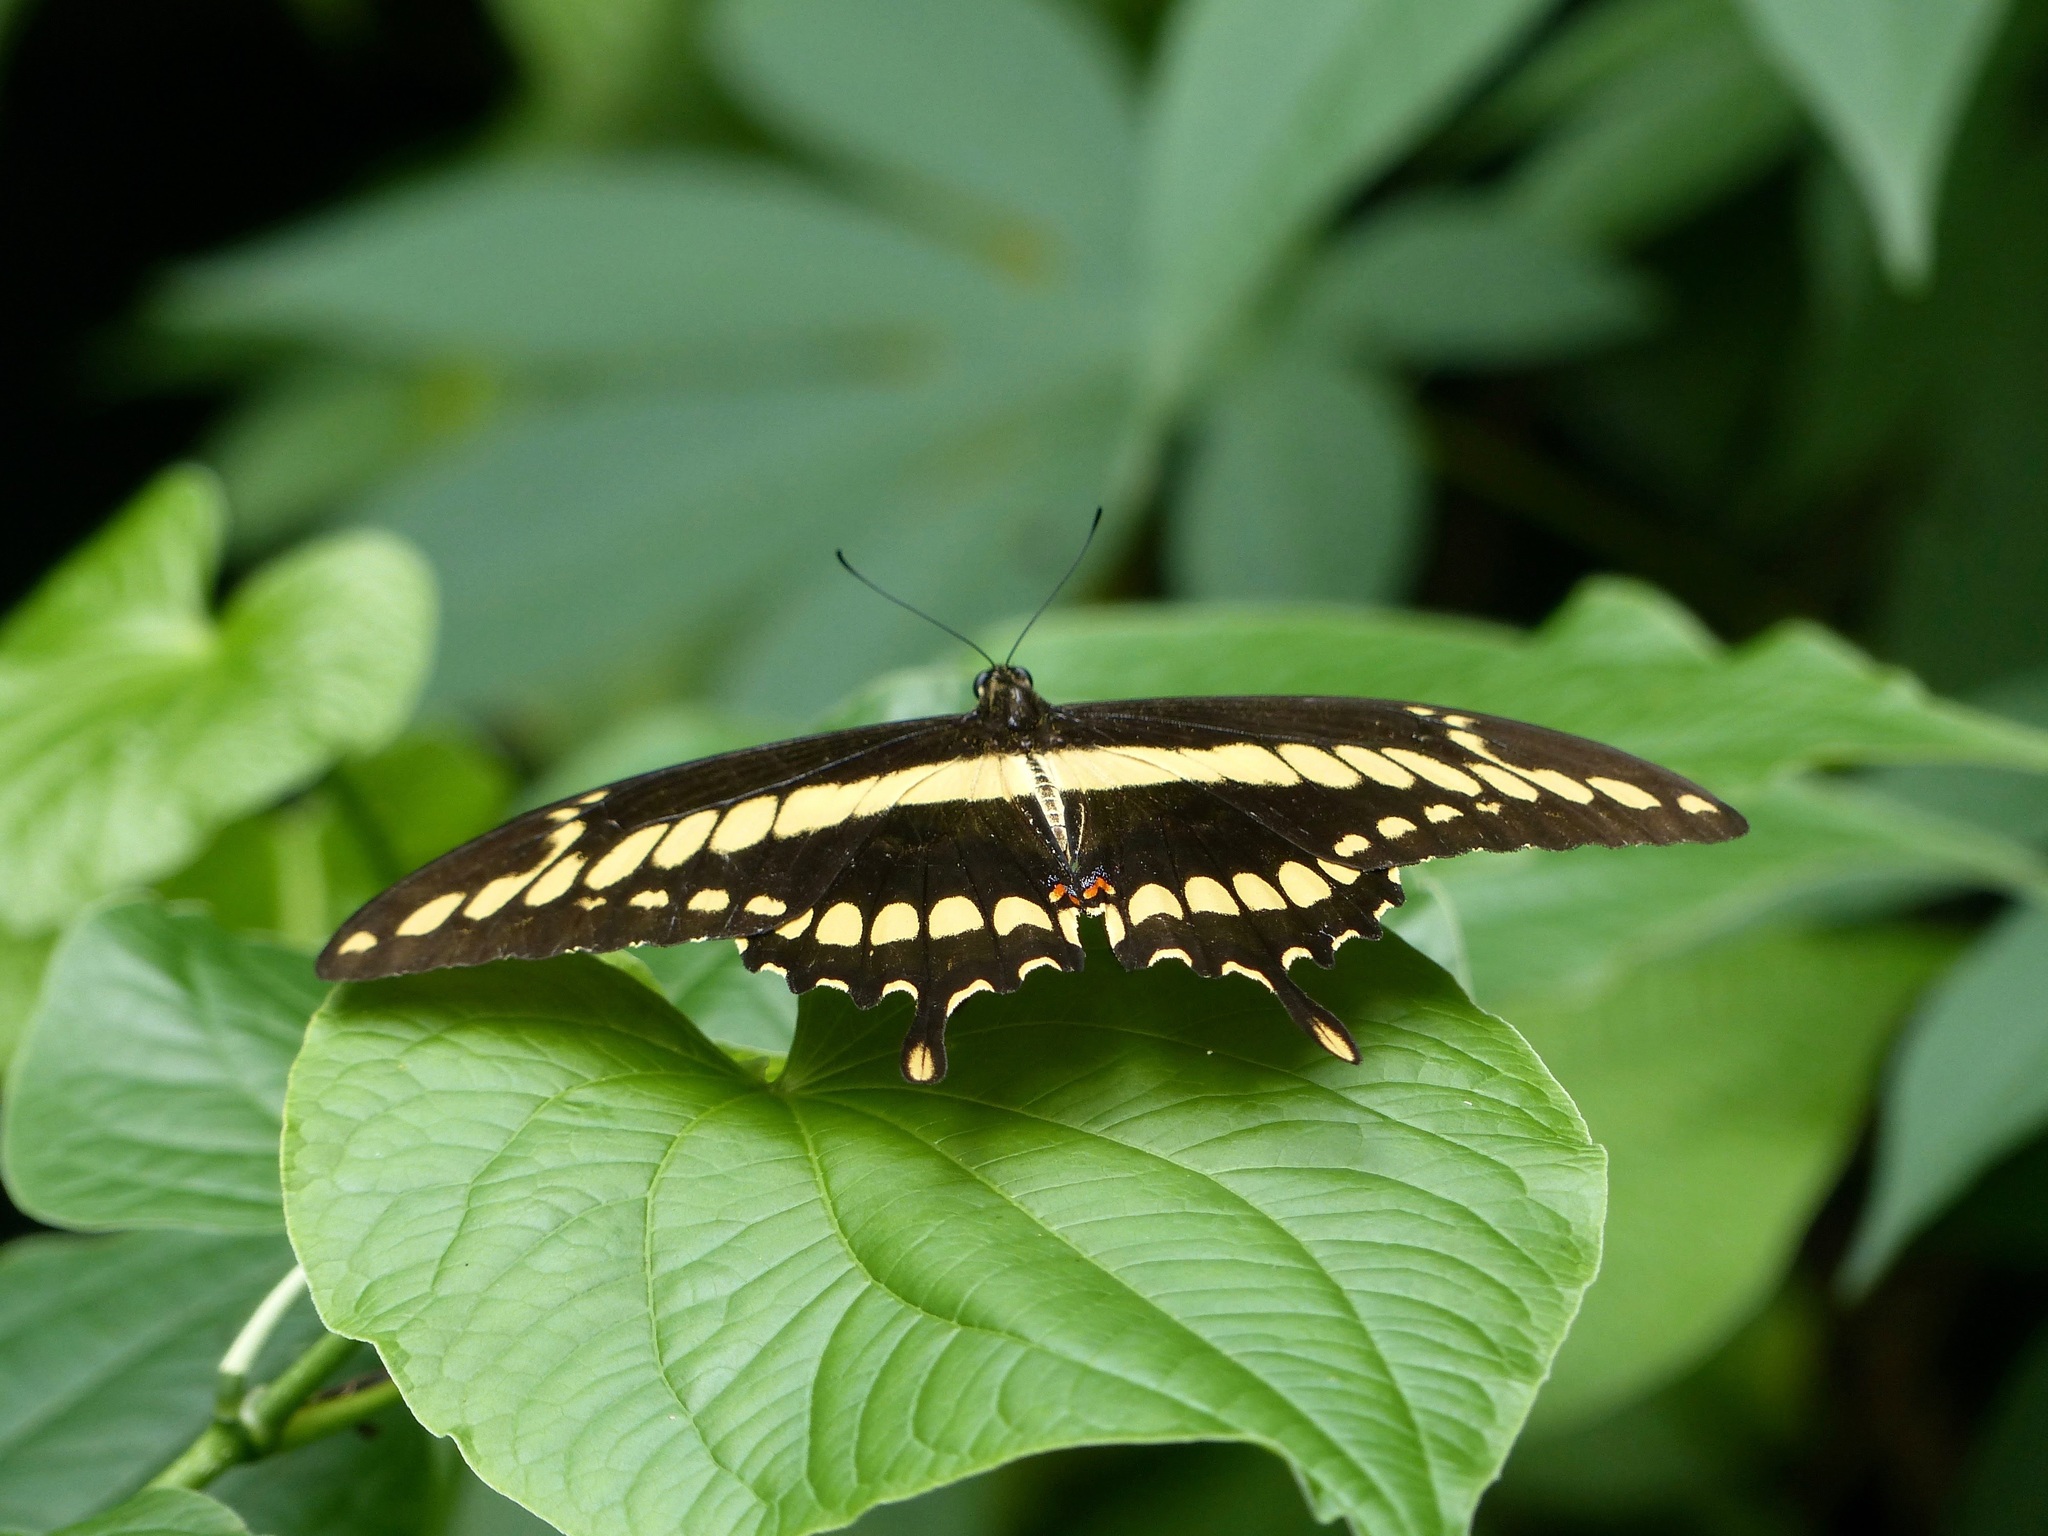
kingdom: Animalia
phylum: Arthropoda
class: Insecta
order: Lepidoptera
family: Papilionidae
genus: Papilio
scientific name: Papilio thoas
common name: King swallowtail
